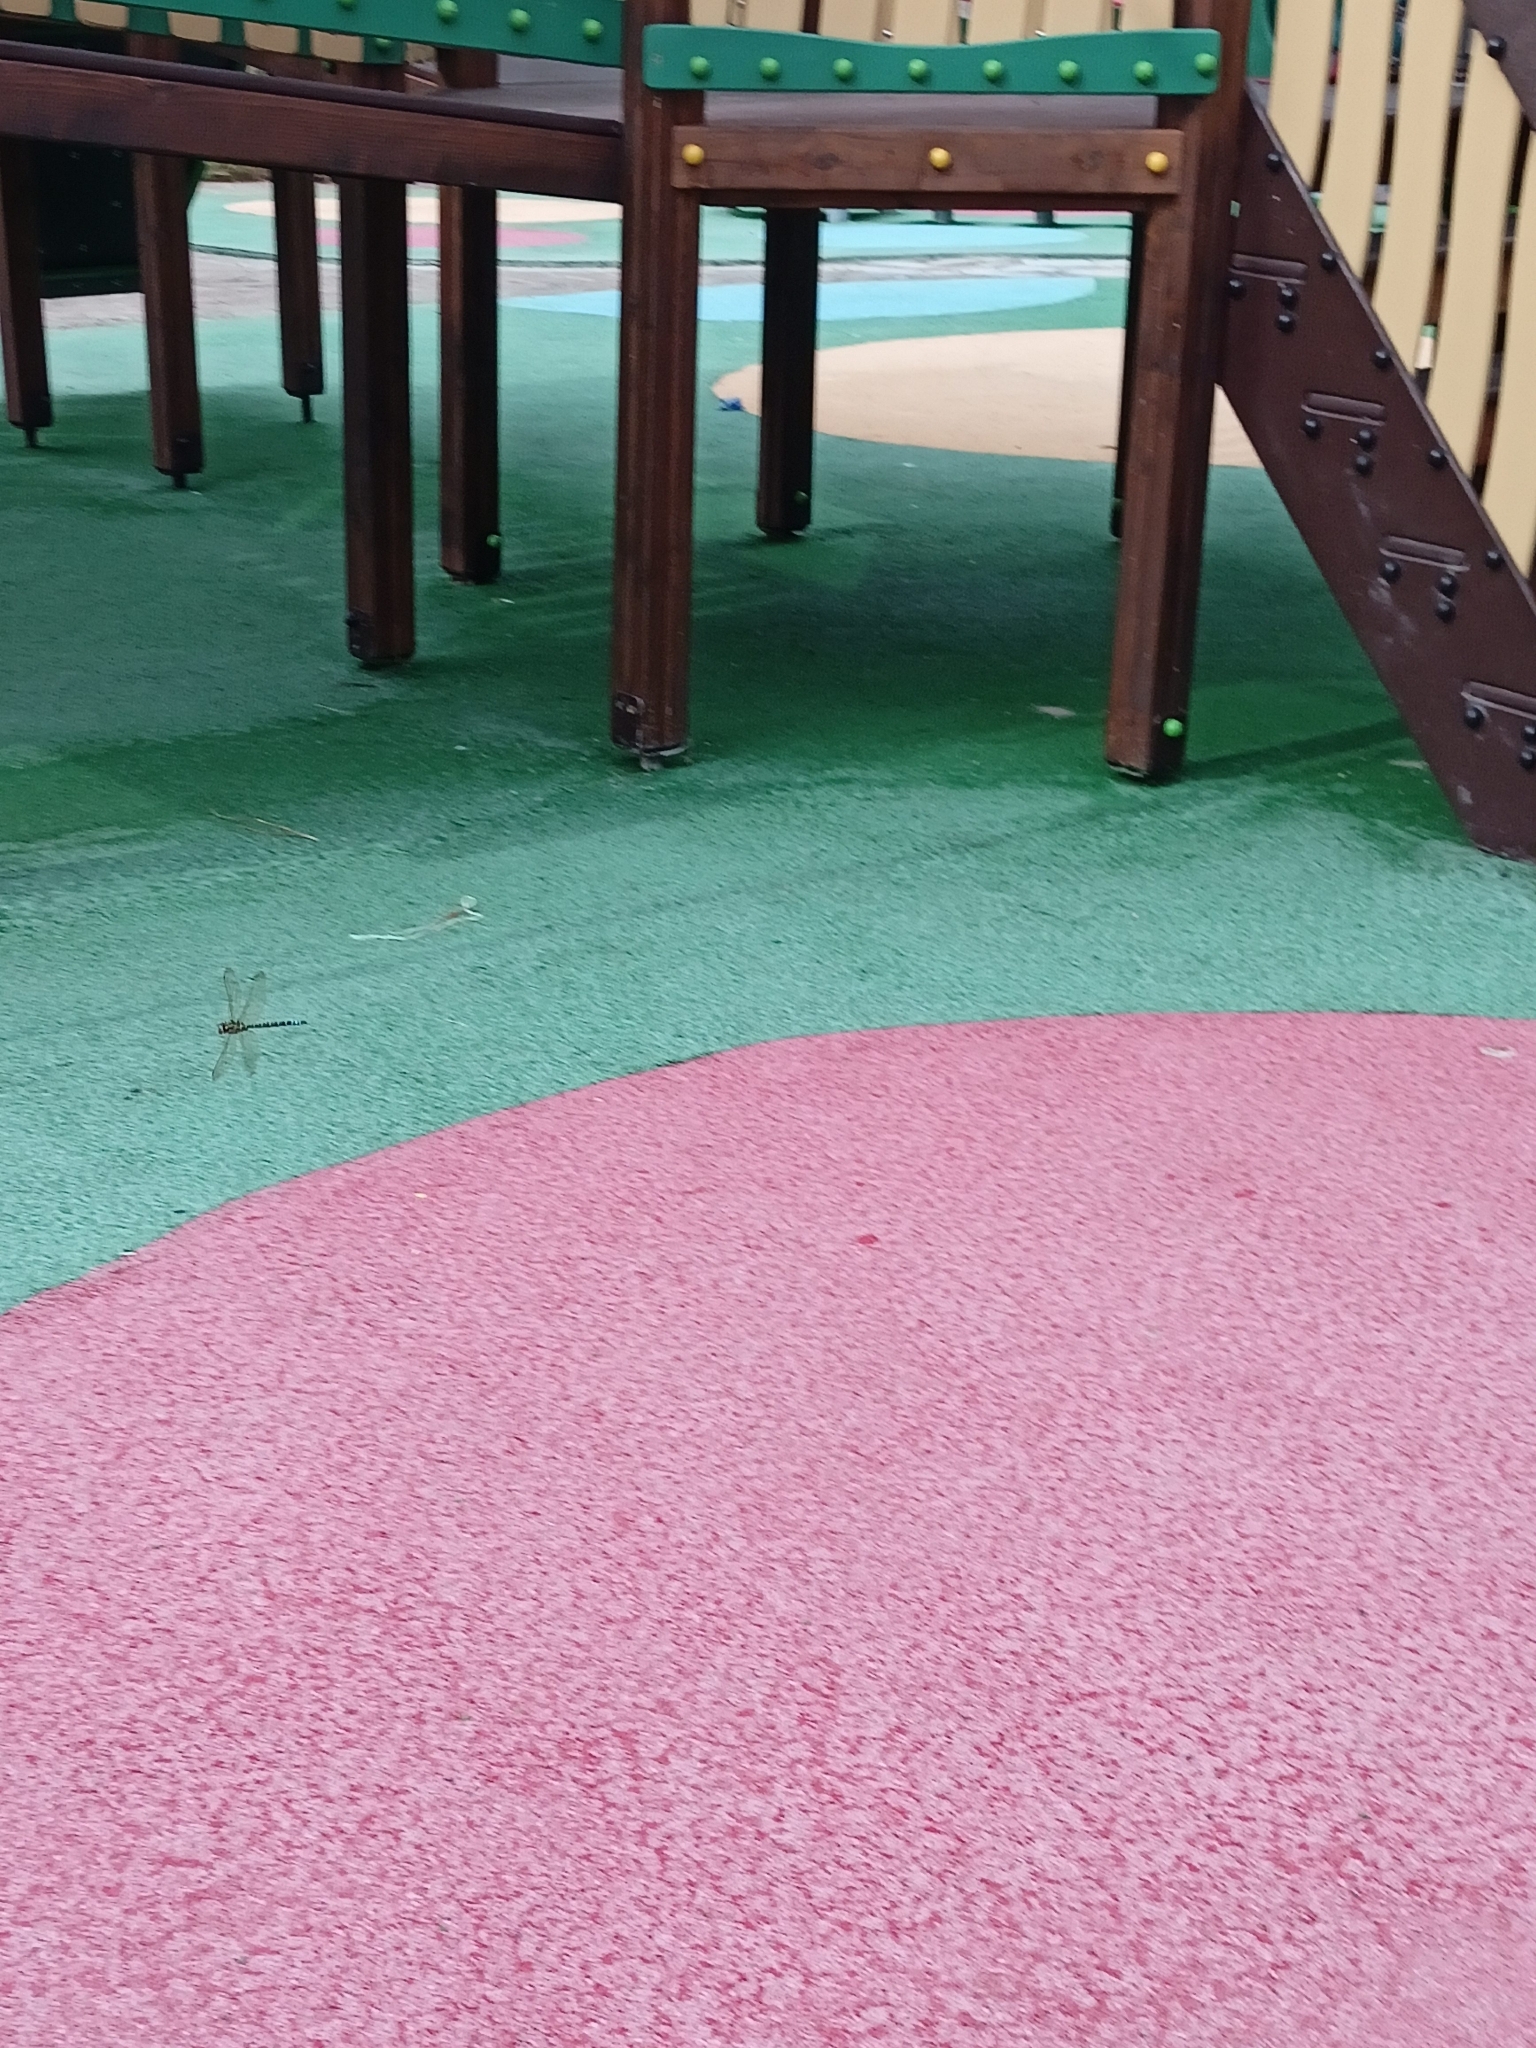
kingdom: Animalia
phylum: Arthropoda
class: Insecta
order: Odonata
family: Aeshnidae
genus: Aeshna
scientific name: Aeshna cyanea
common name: Southern hawker
